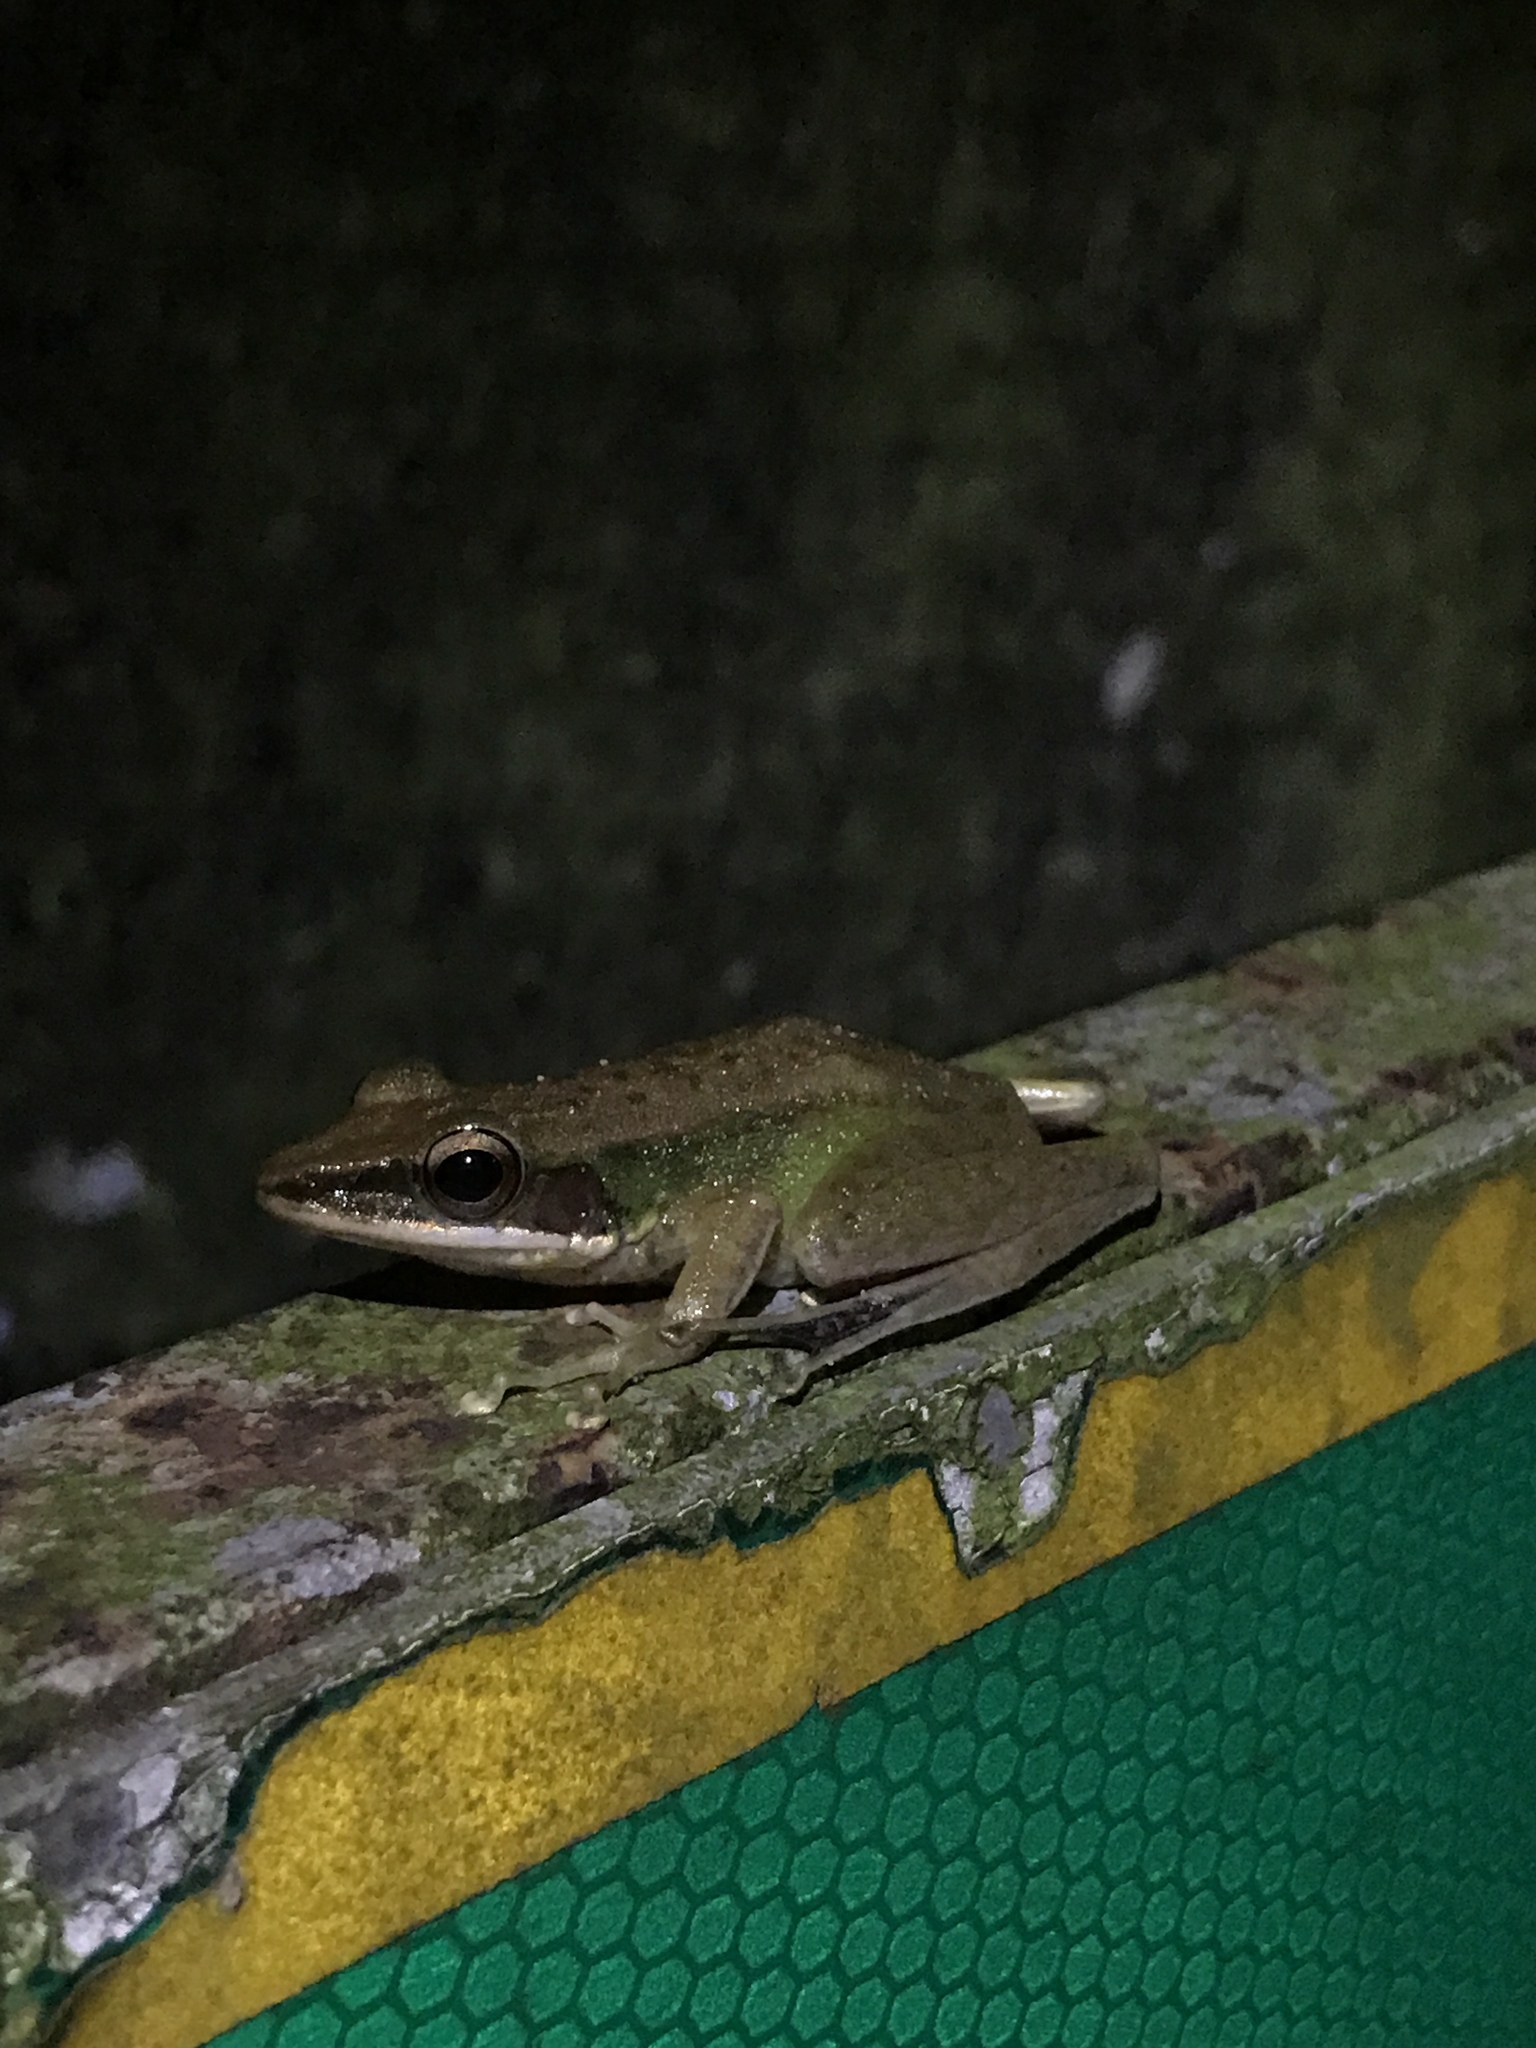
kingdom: Animalia
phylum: Chordata
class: Amphibia
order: Anura
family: Ranidae
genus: Chalcorana
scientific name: Chalcorana labialis
